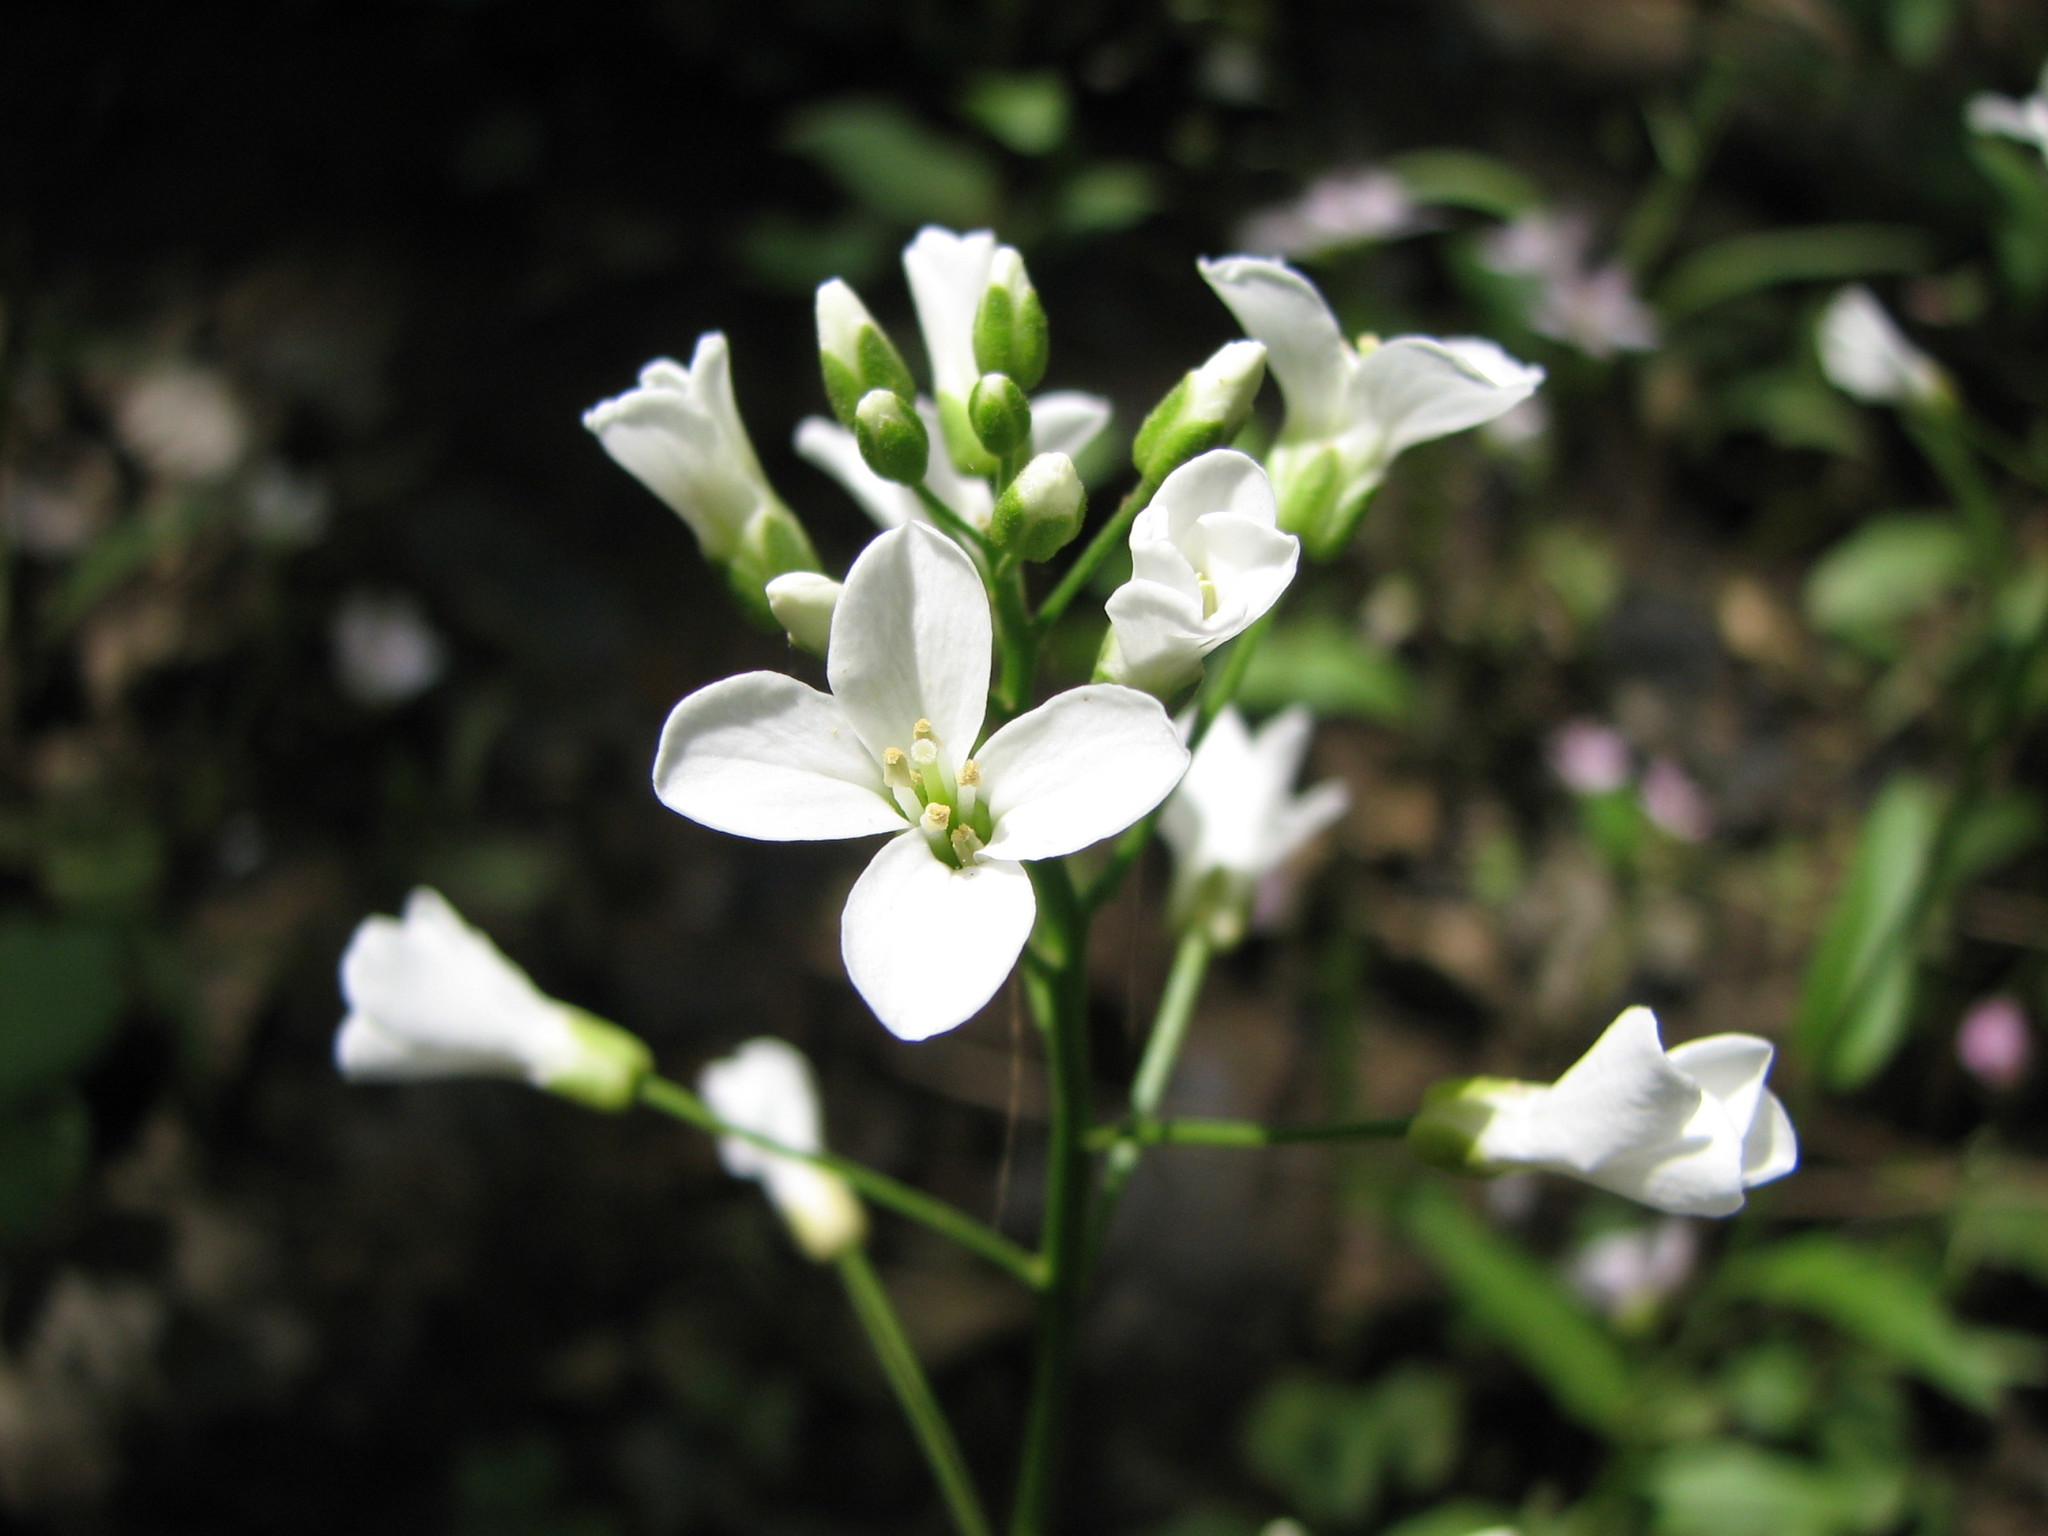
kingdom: Plantae
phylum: Tracheophyta
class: Magnoliopsida
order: Brassicales
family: Brassicaceae
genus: Cardamine
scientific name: Cardamine bulbosa
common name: Spring cress
